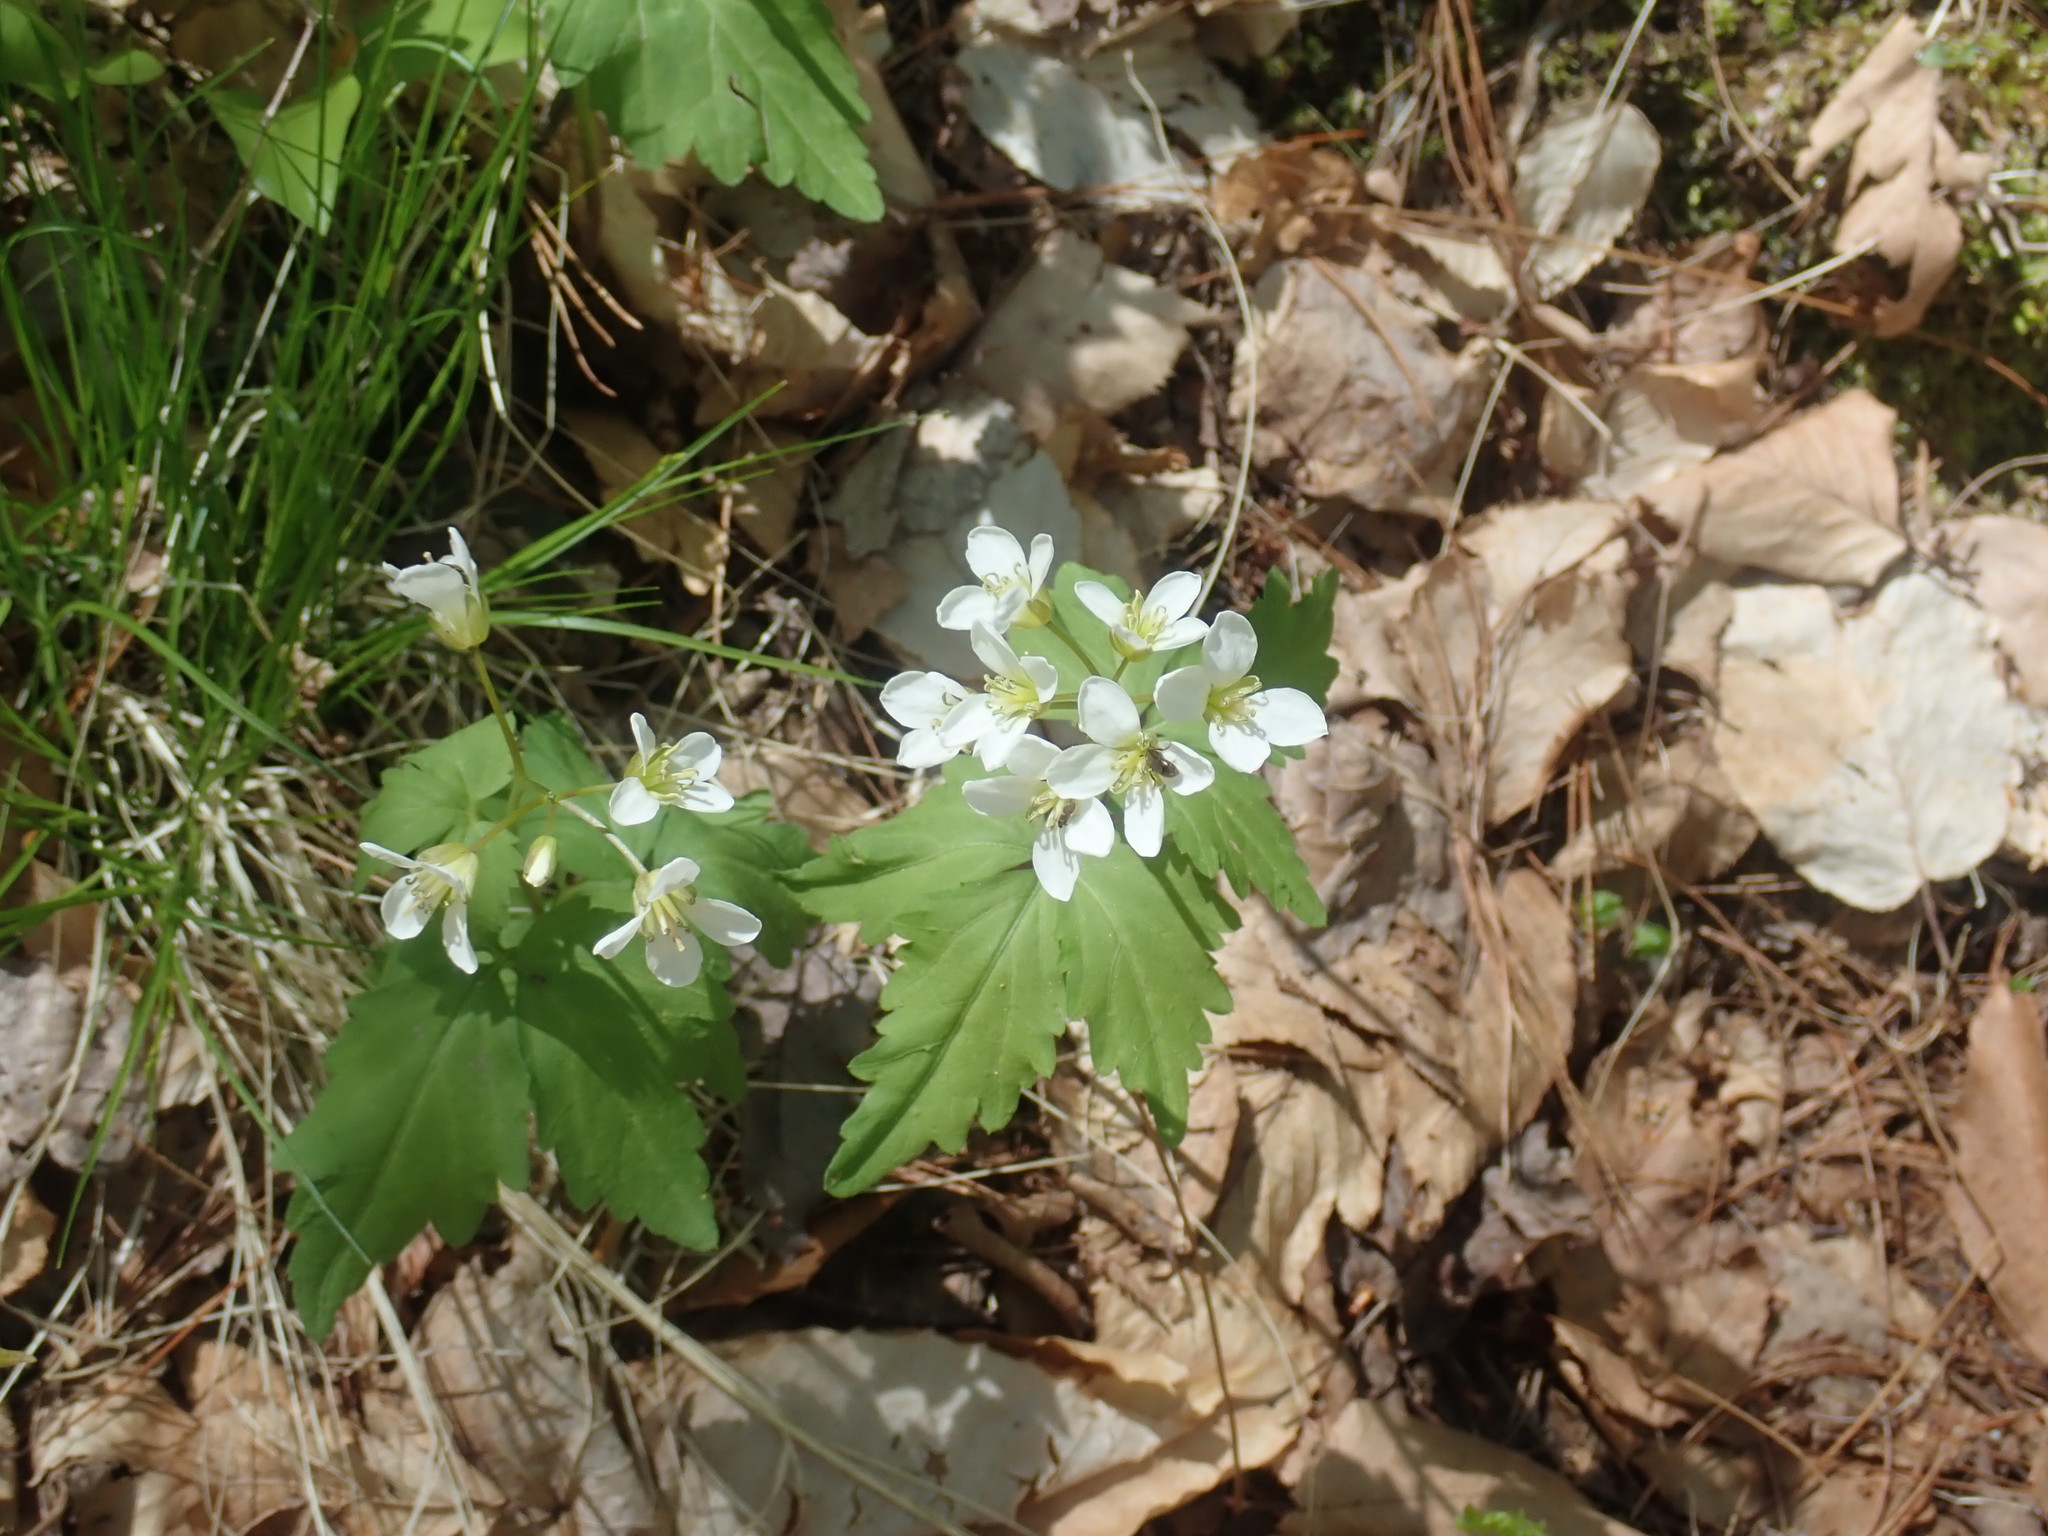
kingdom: Plantae
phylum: Tracheophyta
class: Magnoliopsida
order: Brassicales
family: Brassicaceae
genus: Cardamine
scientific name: Cardamine diphylla
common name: Broad-leaved toothwort
